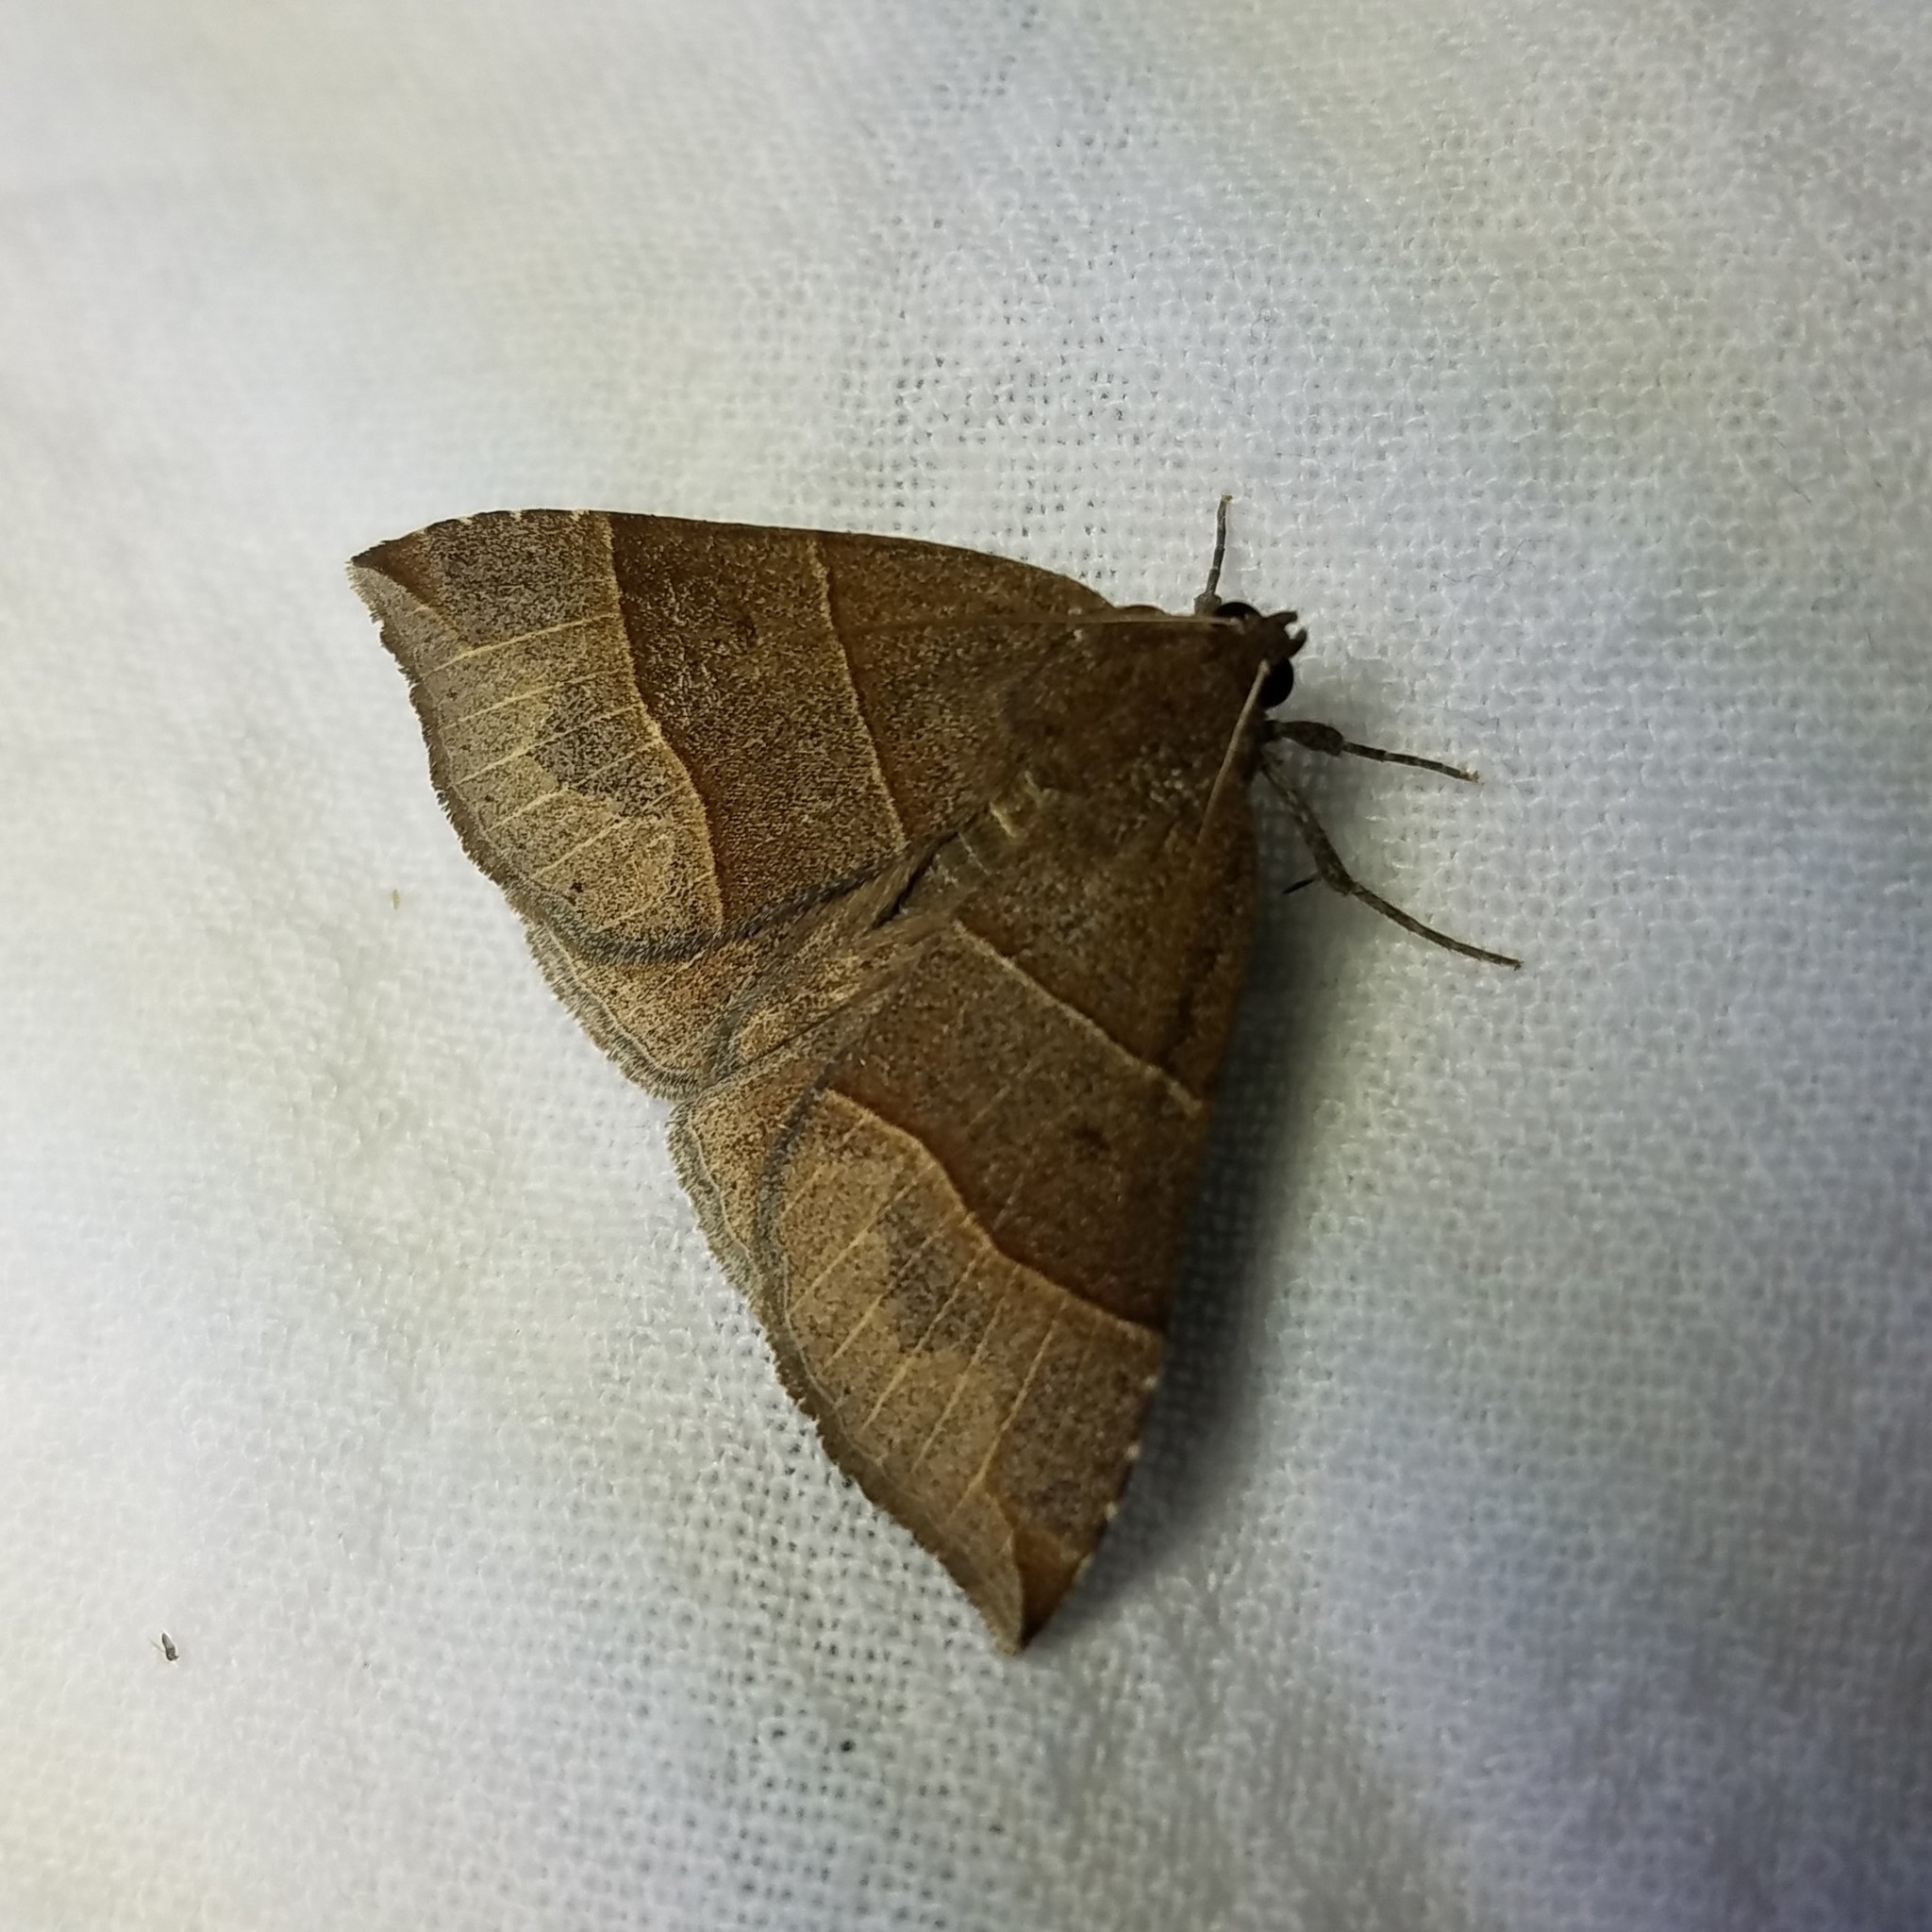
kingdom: Animalia
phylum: Arthropoda
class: Insecta
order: Lepidoptera
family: Erebidae
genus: Parallelia
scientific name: Parallelia bistriaris
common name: Maple looper moth
